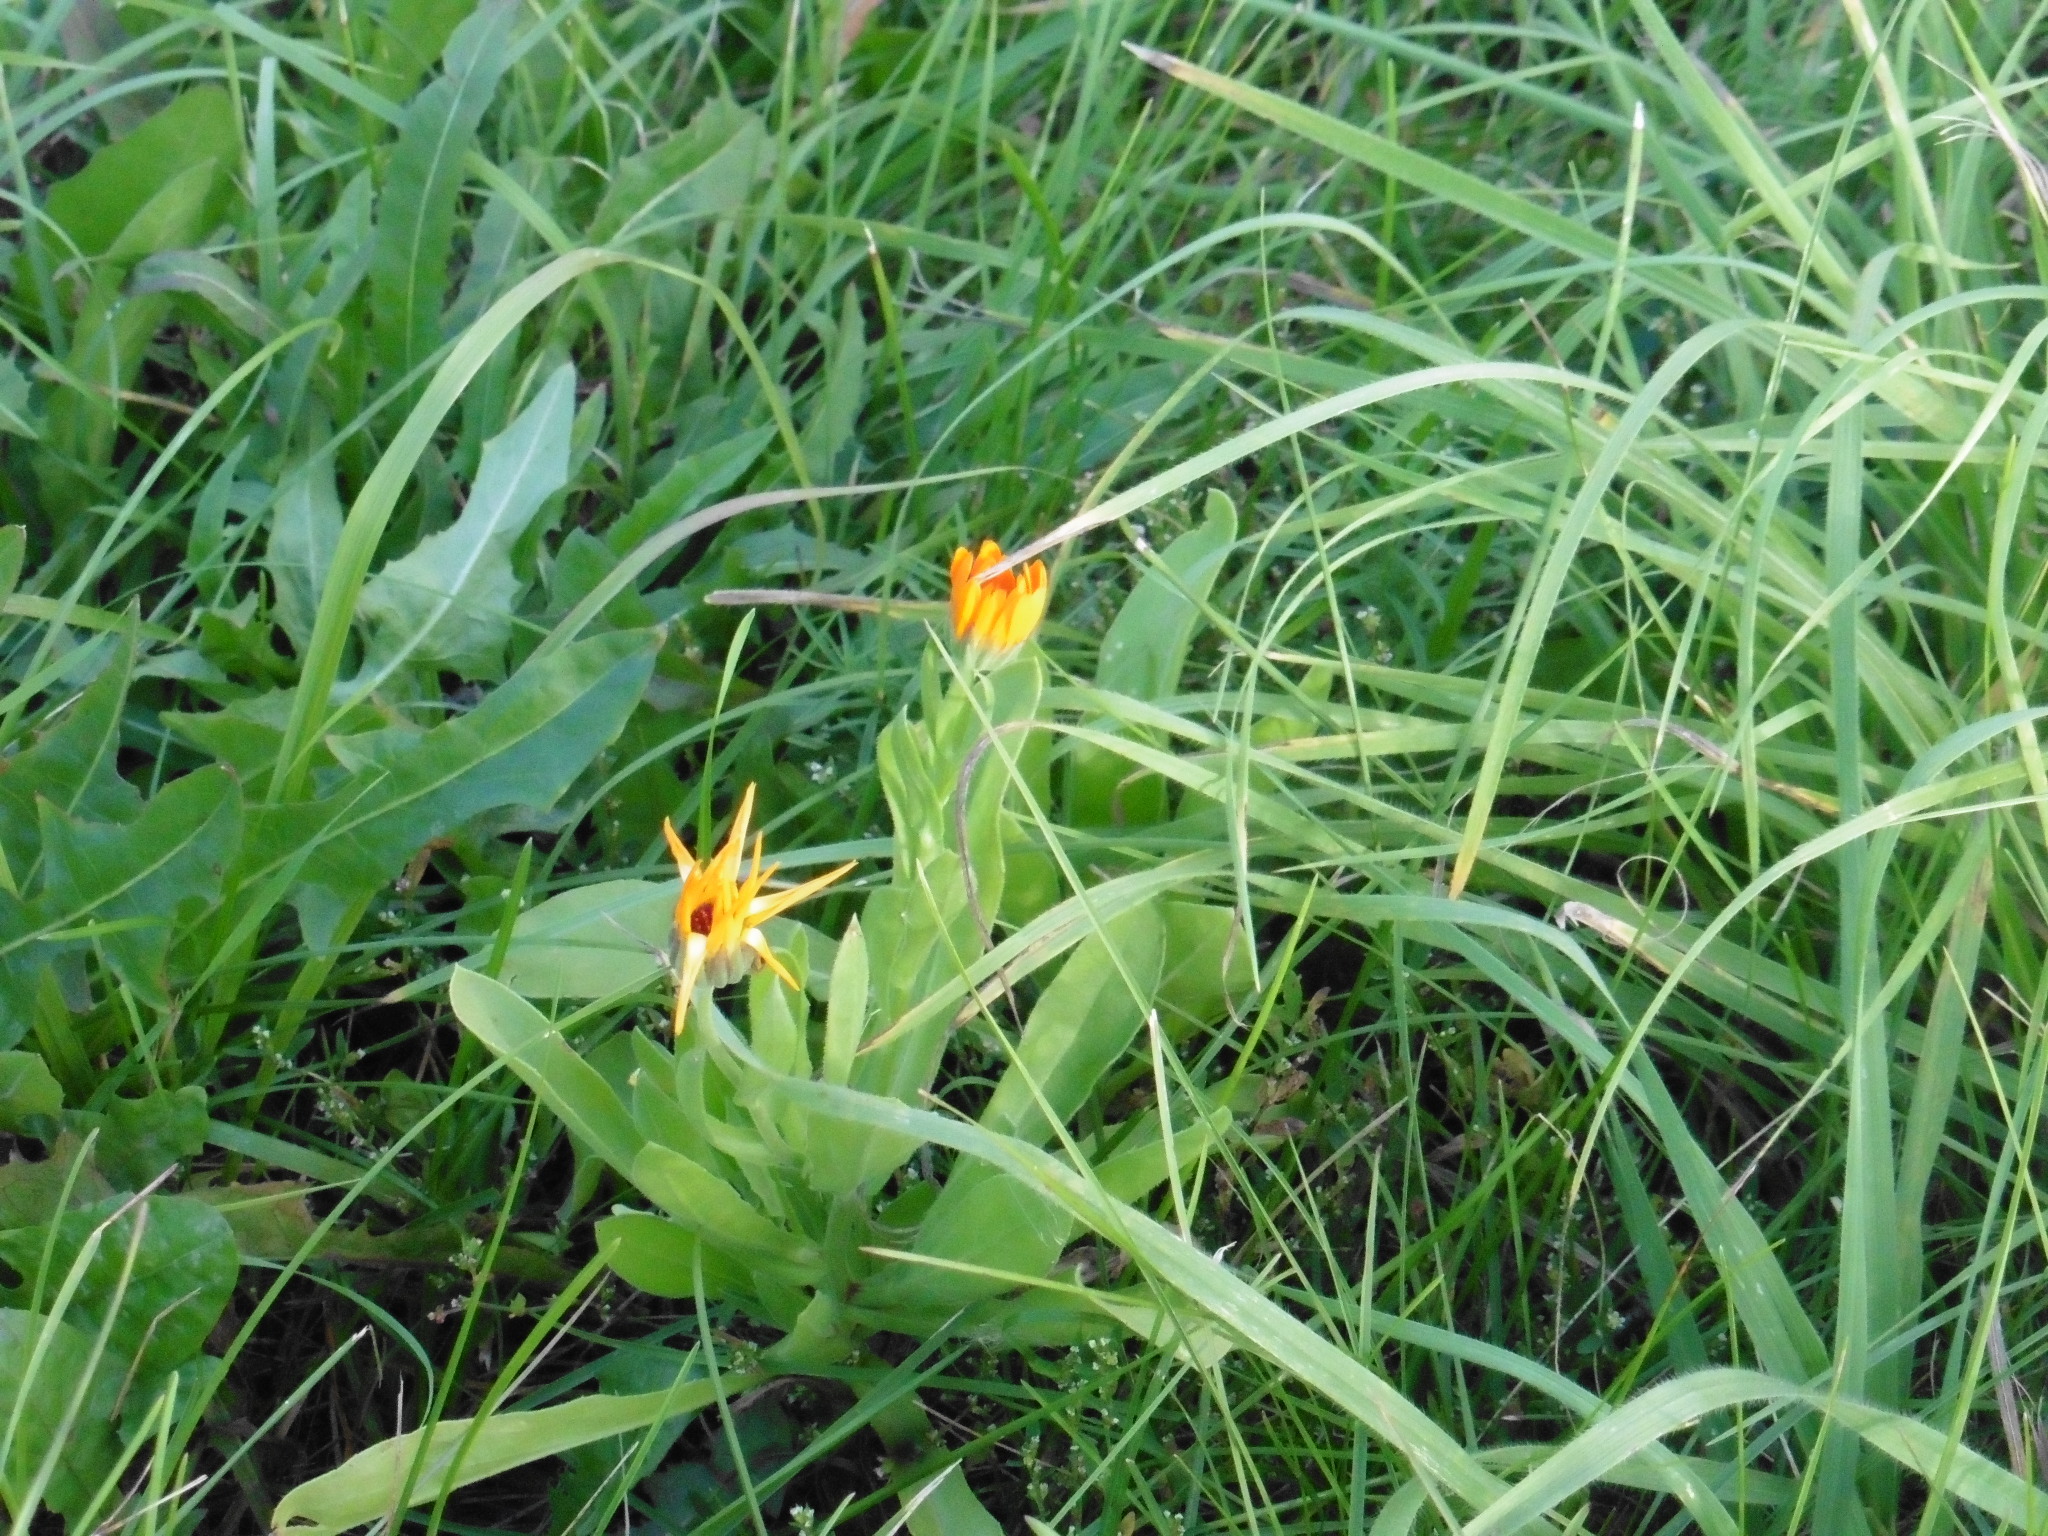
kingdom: Plantae
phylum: Tracheophyta
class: Magnoliopsida
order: Asterales
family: Asteraceae
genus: Calendula
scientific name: Calendula officinalis
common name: Pot marigold
